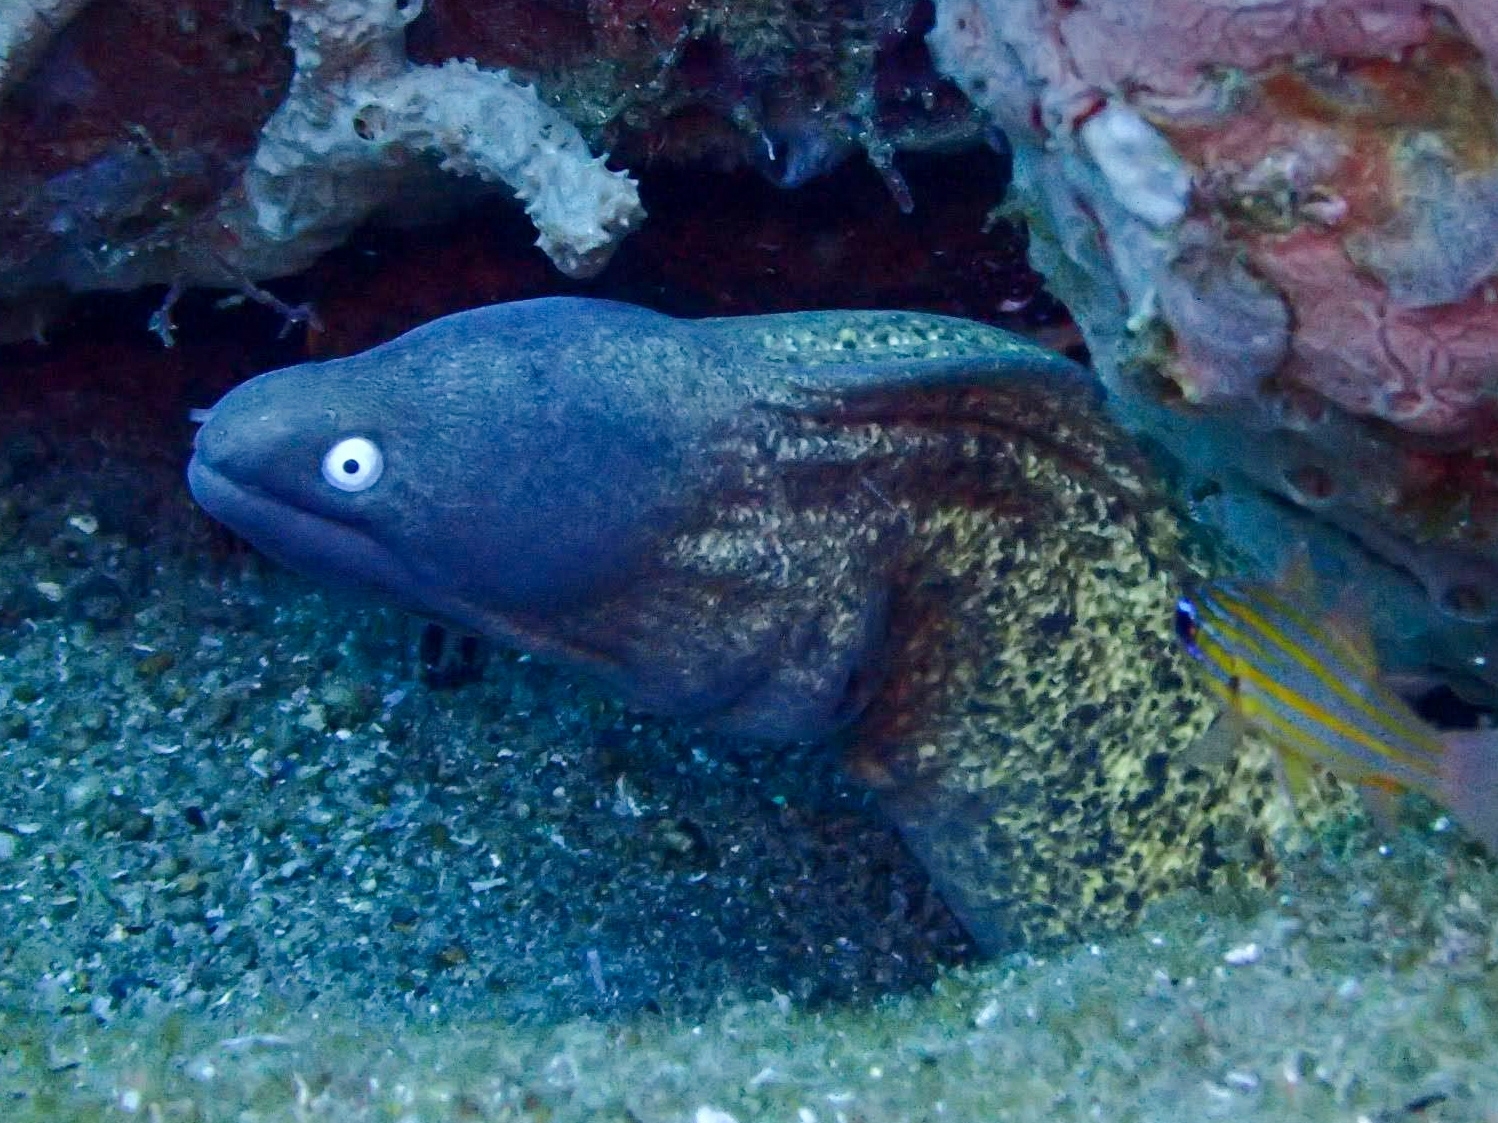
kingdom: Animalia
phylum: Chordata
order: Anguilliformes
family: Muraenidae
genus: Gymnothorax
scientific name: Gymnothorax thyrsoideus
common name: Greyface moray
